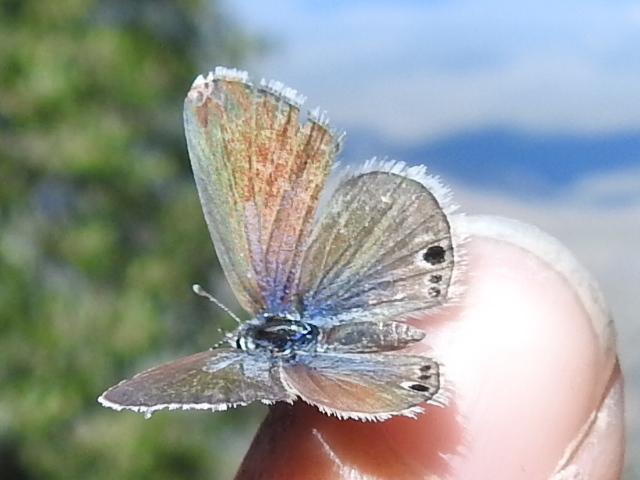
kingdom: Animalia
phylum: Arthropoda
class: Insecta
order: Lepidoptera
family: Lycaenidae
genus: Echinargus
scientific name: Echinargus isola
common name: Reakirt's blue
